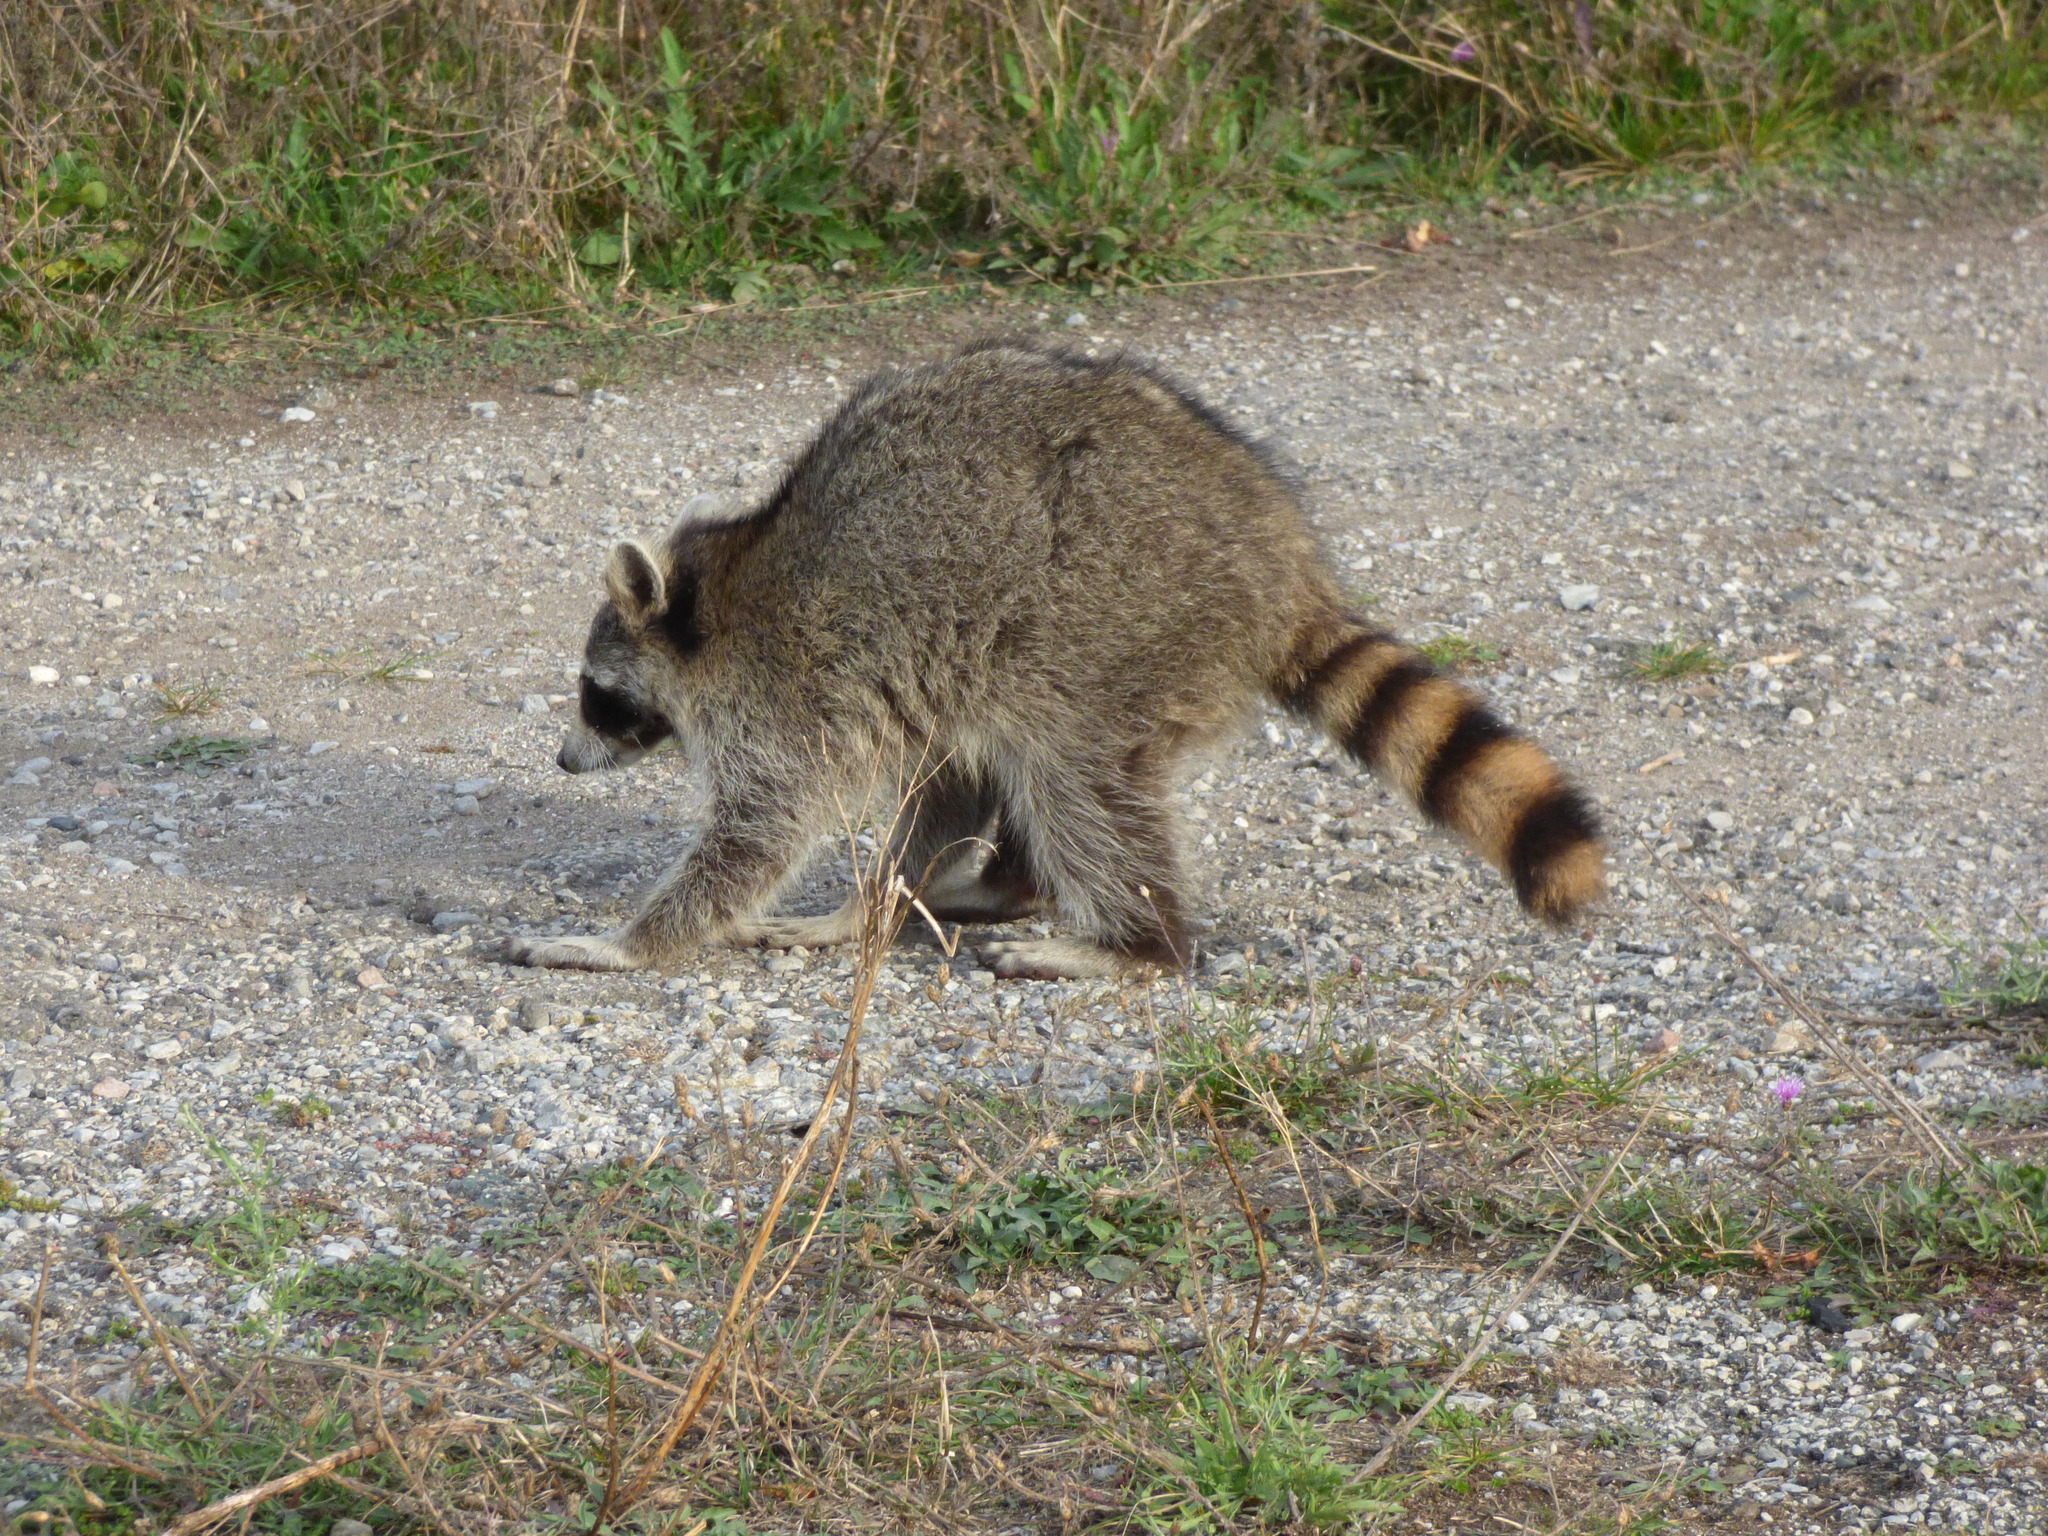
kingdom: Animalia
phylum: Chordata
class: Mammalia
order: Carnivora
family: Procyonidae
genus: Procyon
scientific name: Procyon lotor
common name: Raccoon
